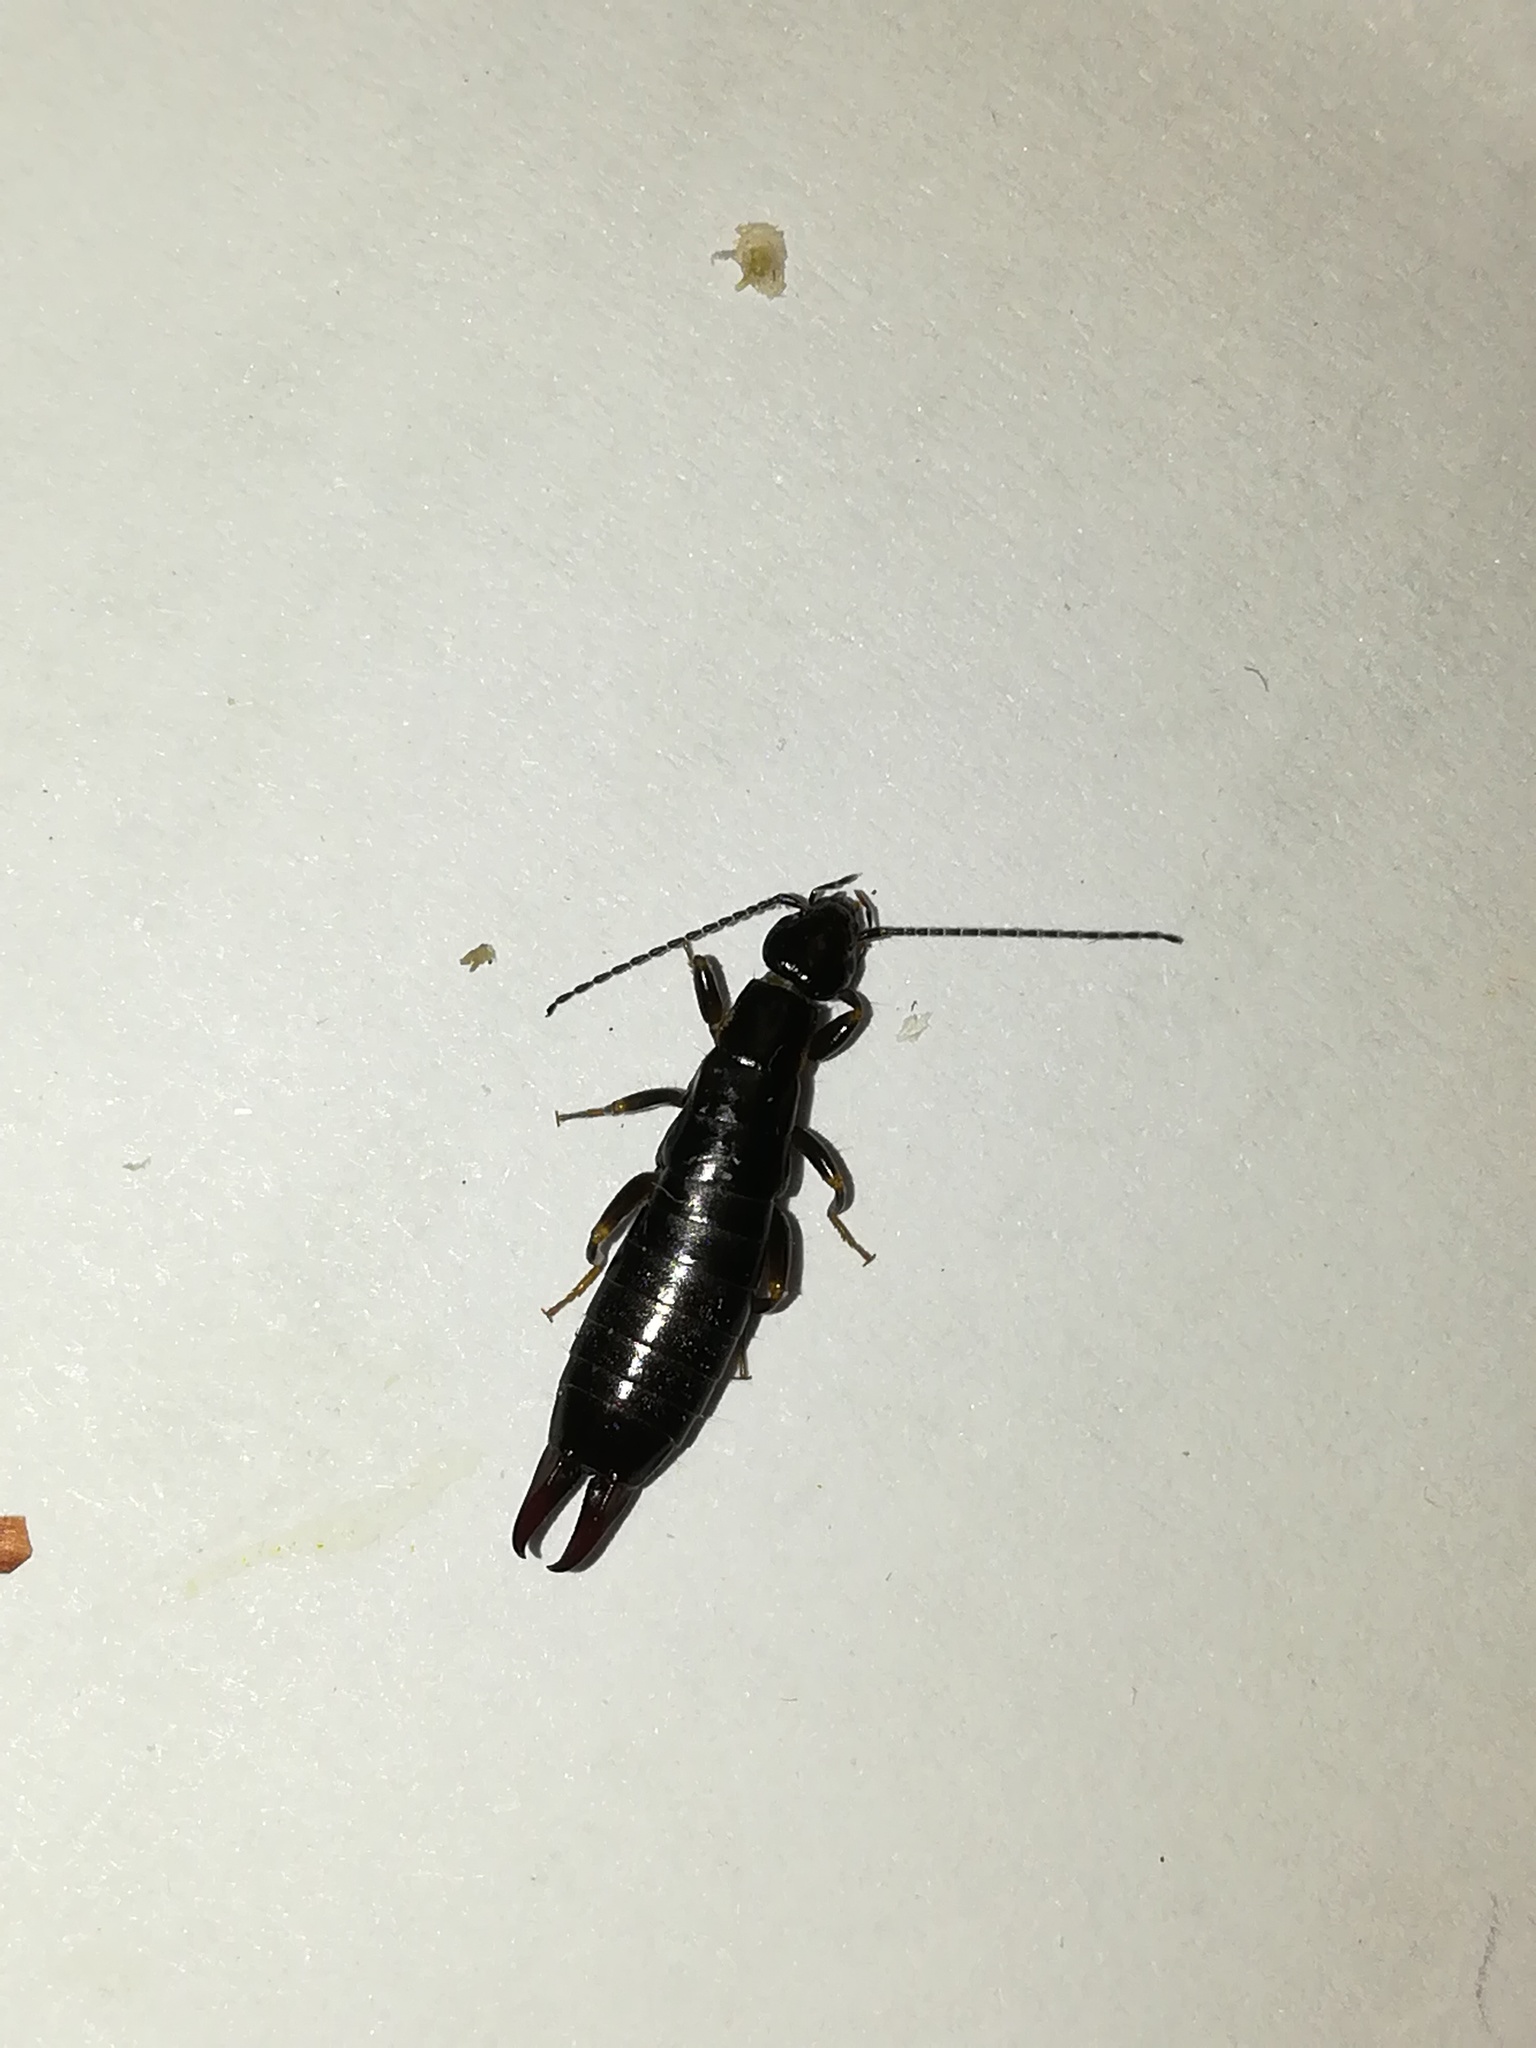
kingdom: Animalia
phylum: Arthropoda
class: Insecta
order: Dermaptera
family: Anisolabididae
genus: Euborellia
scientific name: Euborellia moesta
